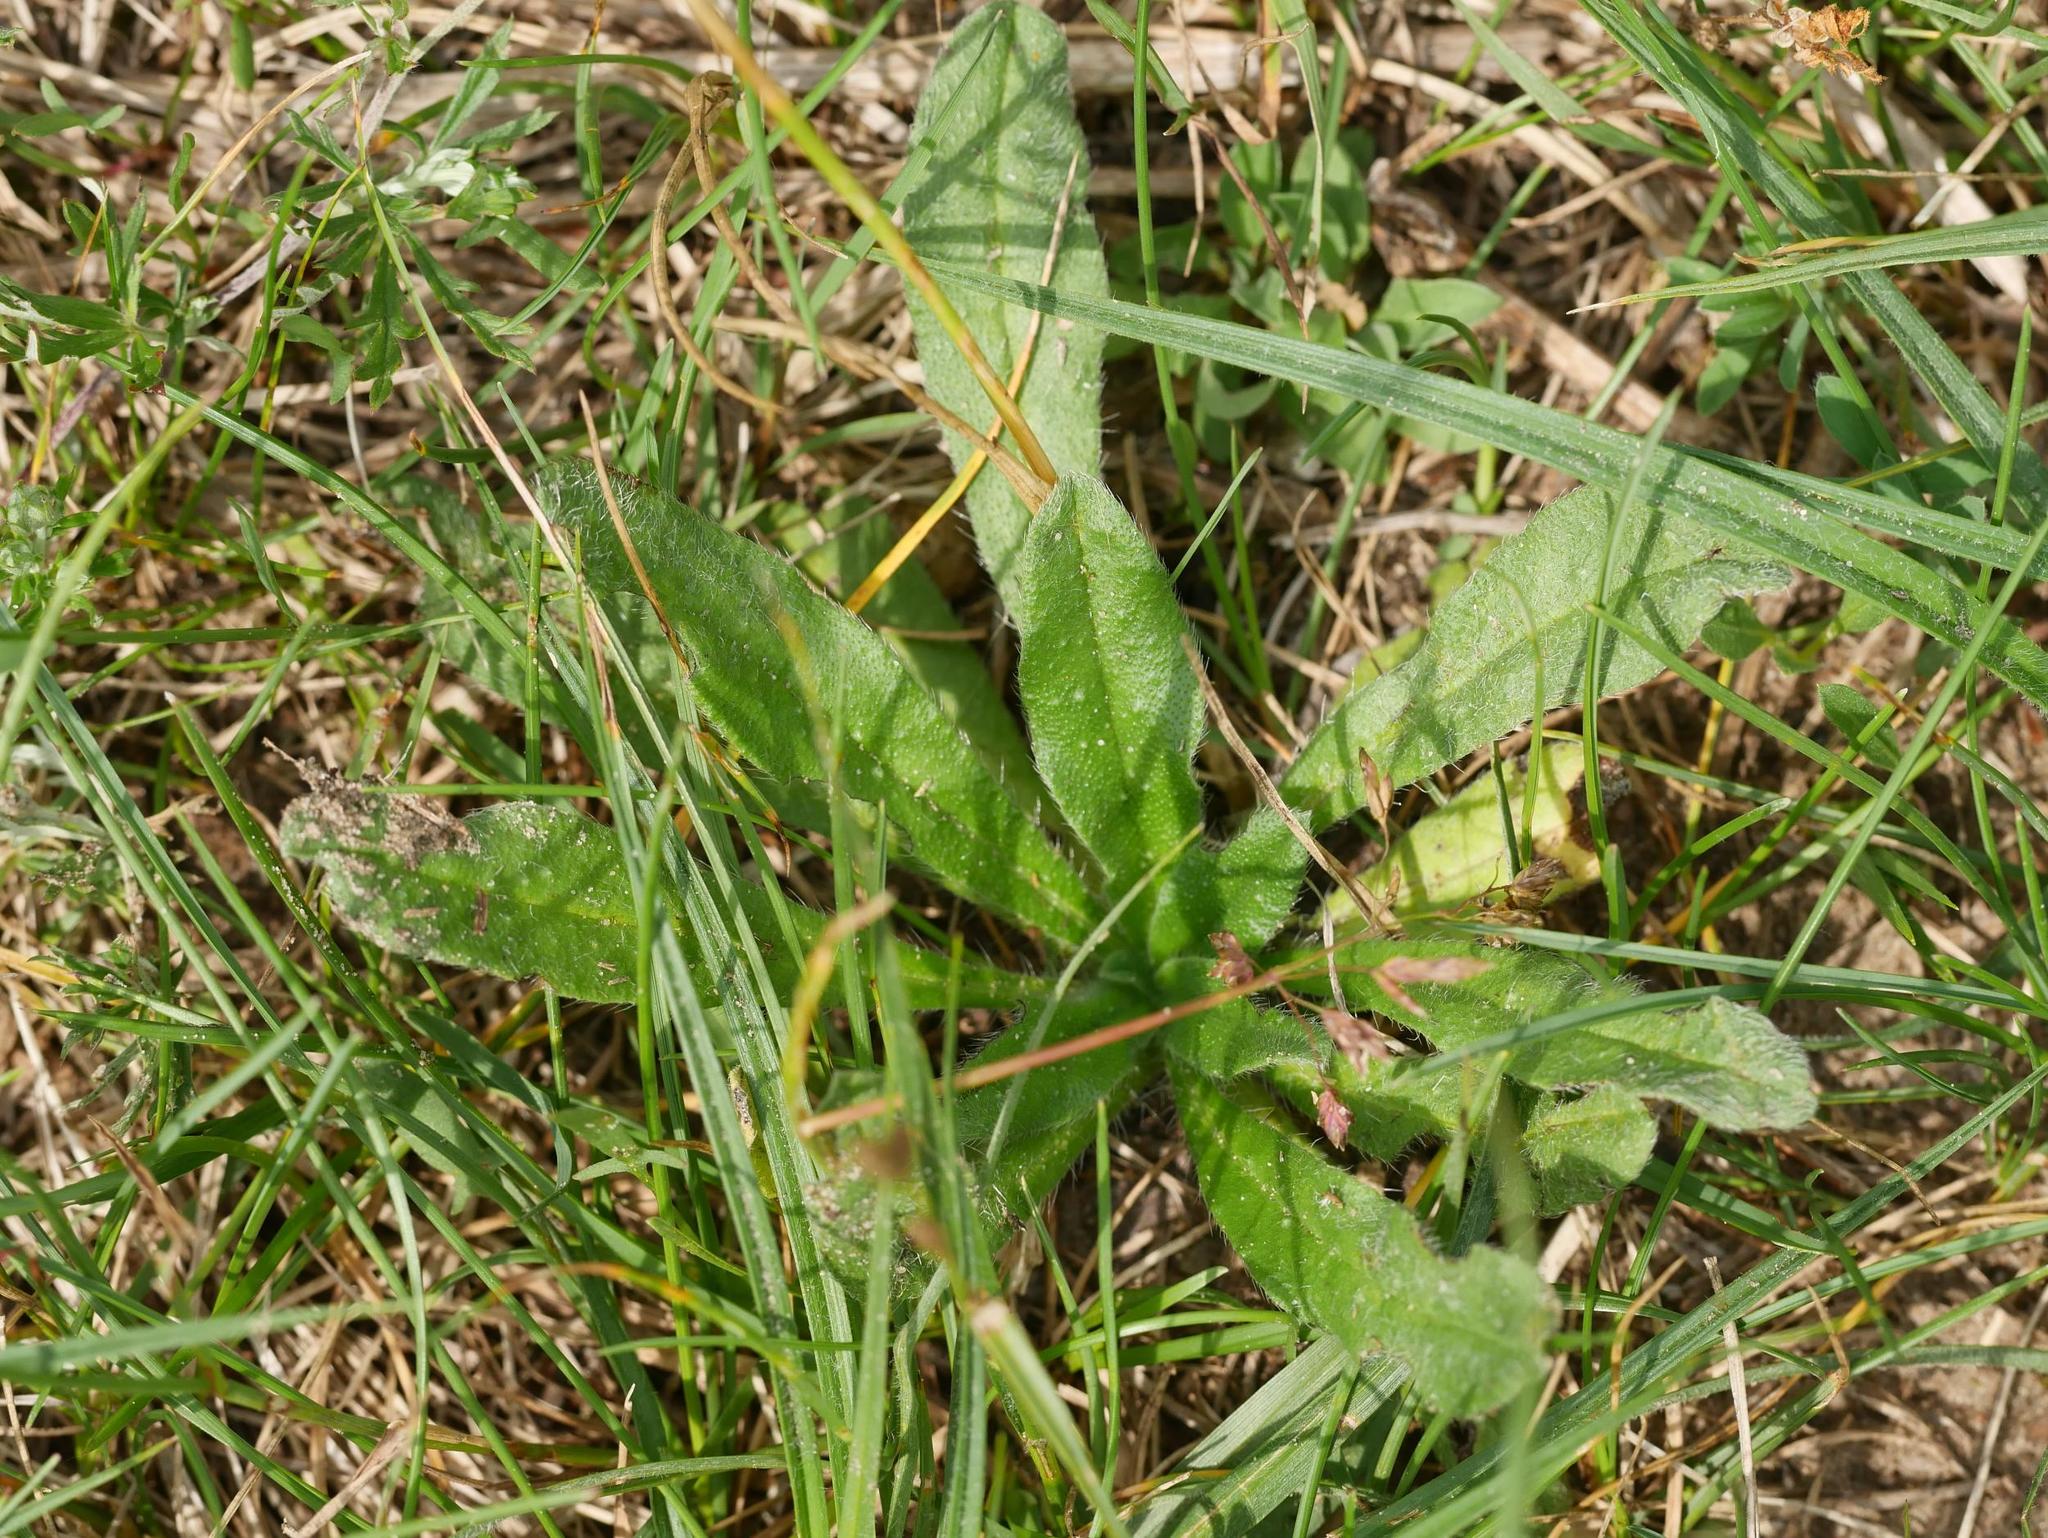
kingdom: Plantae
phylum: Tracheophyta
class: Magnoliopsida
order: Boraginales
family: Boraginaceae
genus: Echium
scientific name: Echium vulgare
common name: Common viper's bugloss
